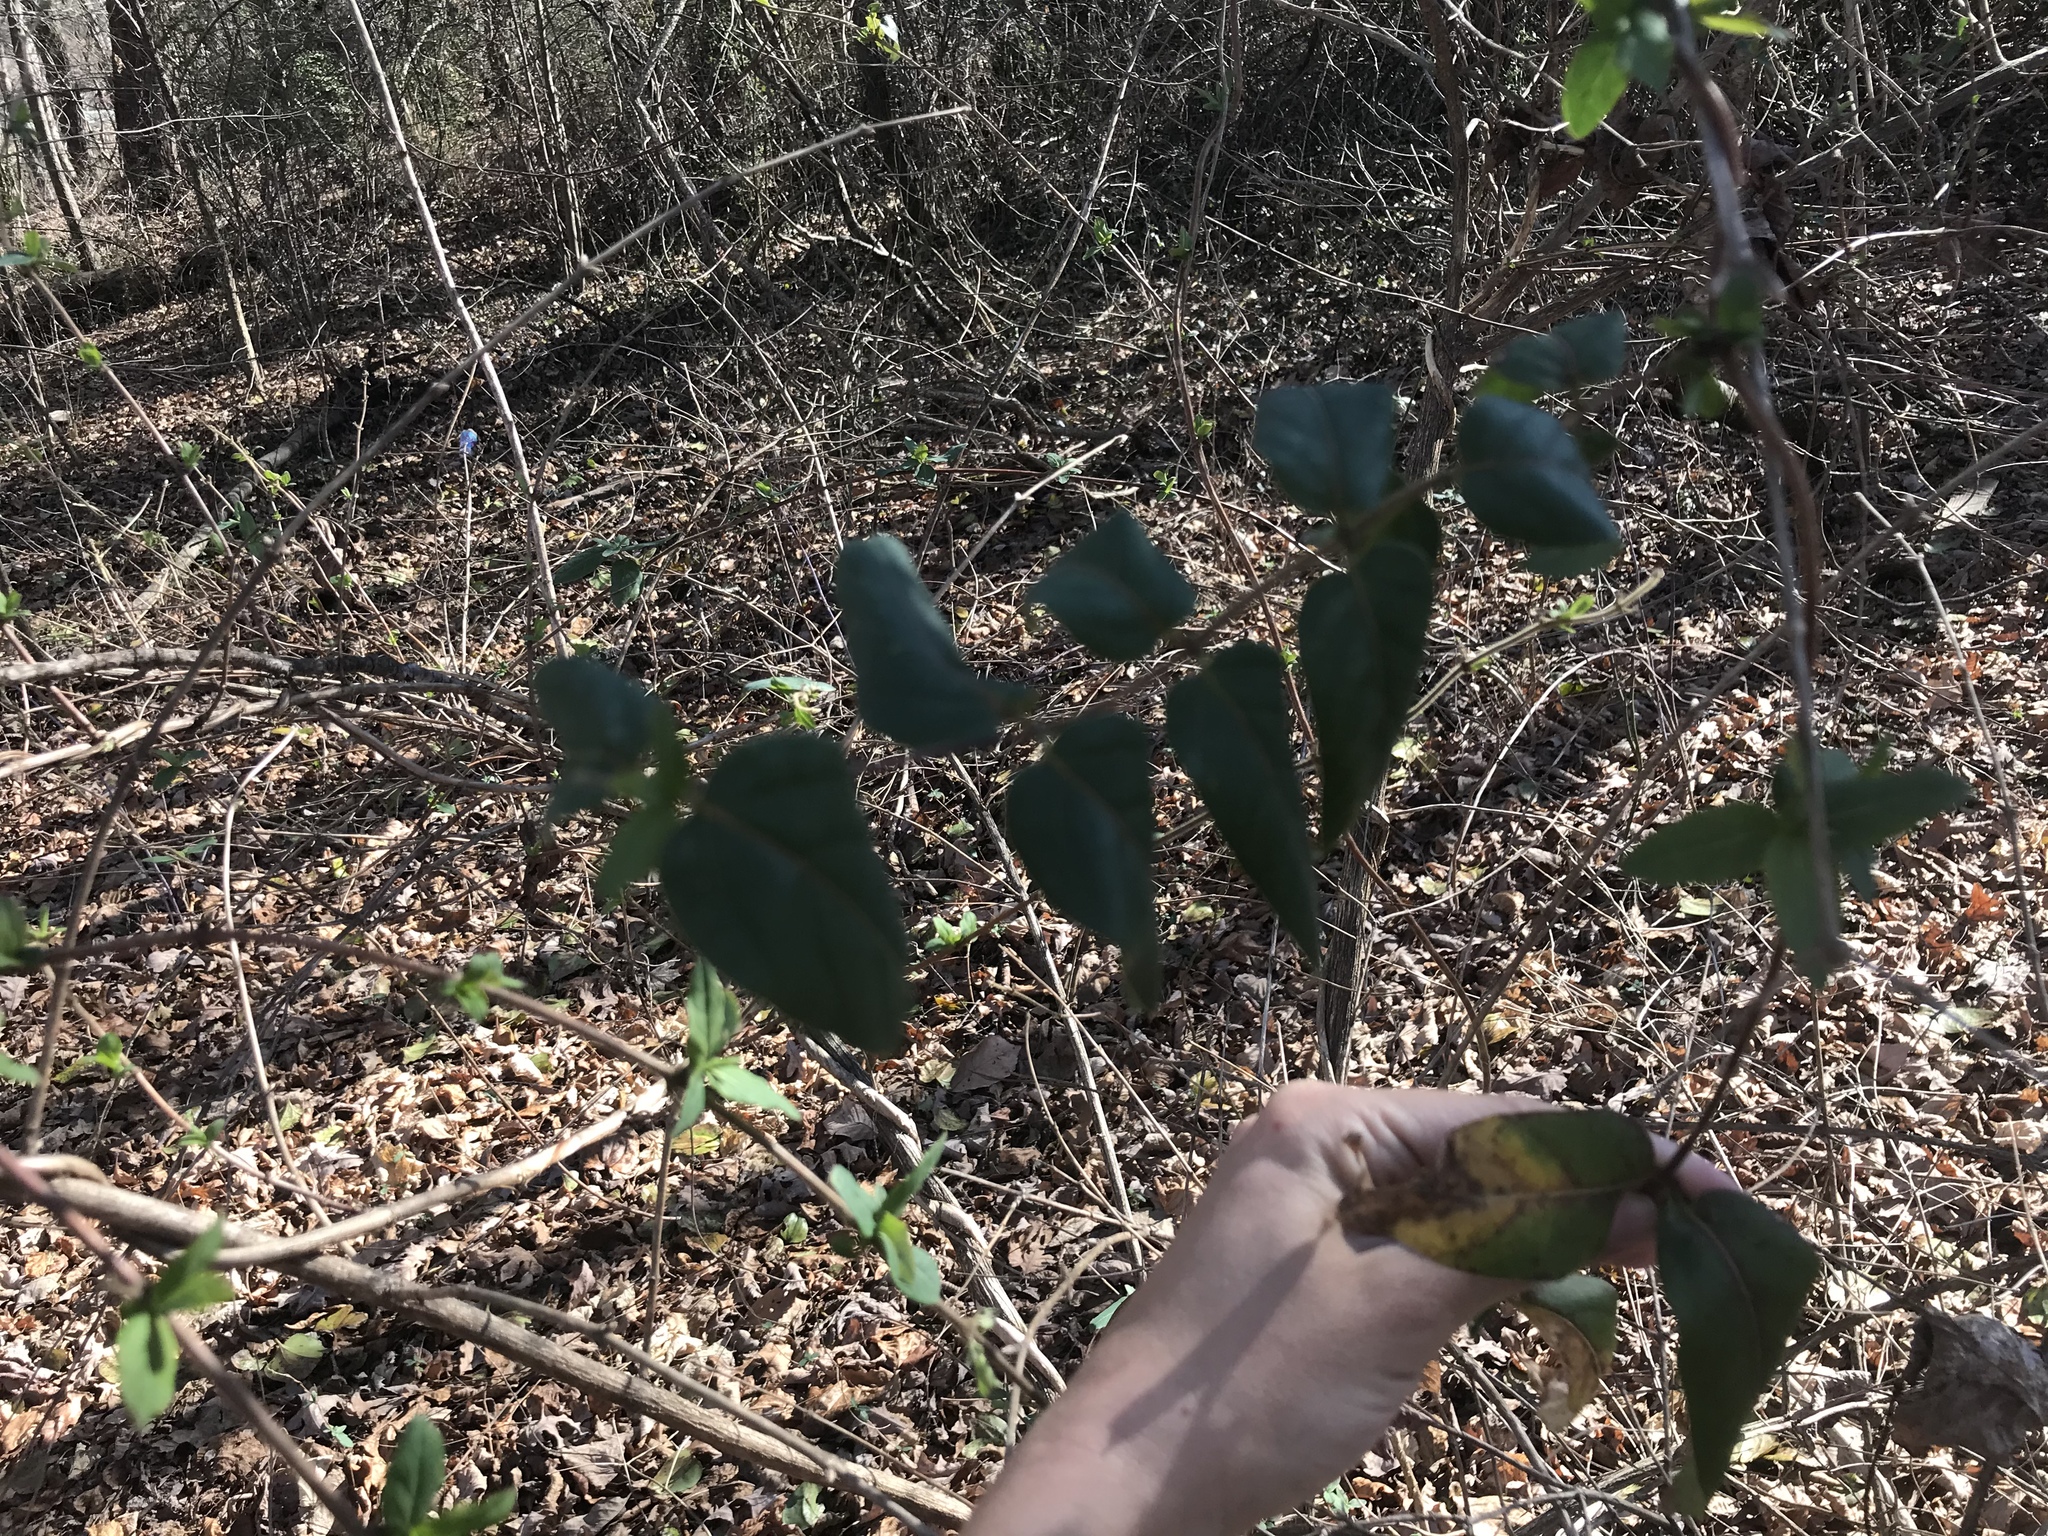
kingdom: Plantae
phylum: Tracheophyta
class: Magnoliopsida
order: Dipsacales
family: Caprifoliaceae
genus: Lonicera
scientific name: Lonicera japonica
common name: Japanese honeysuckle
